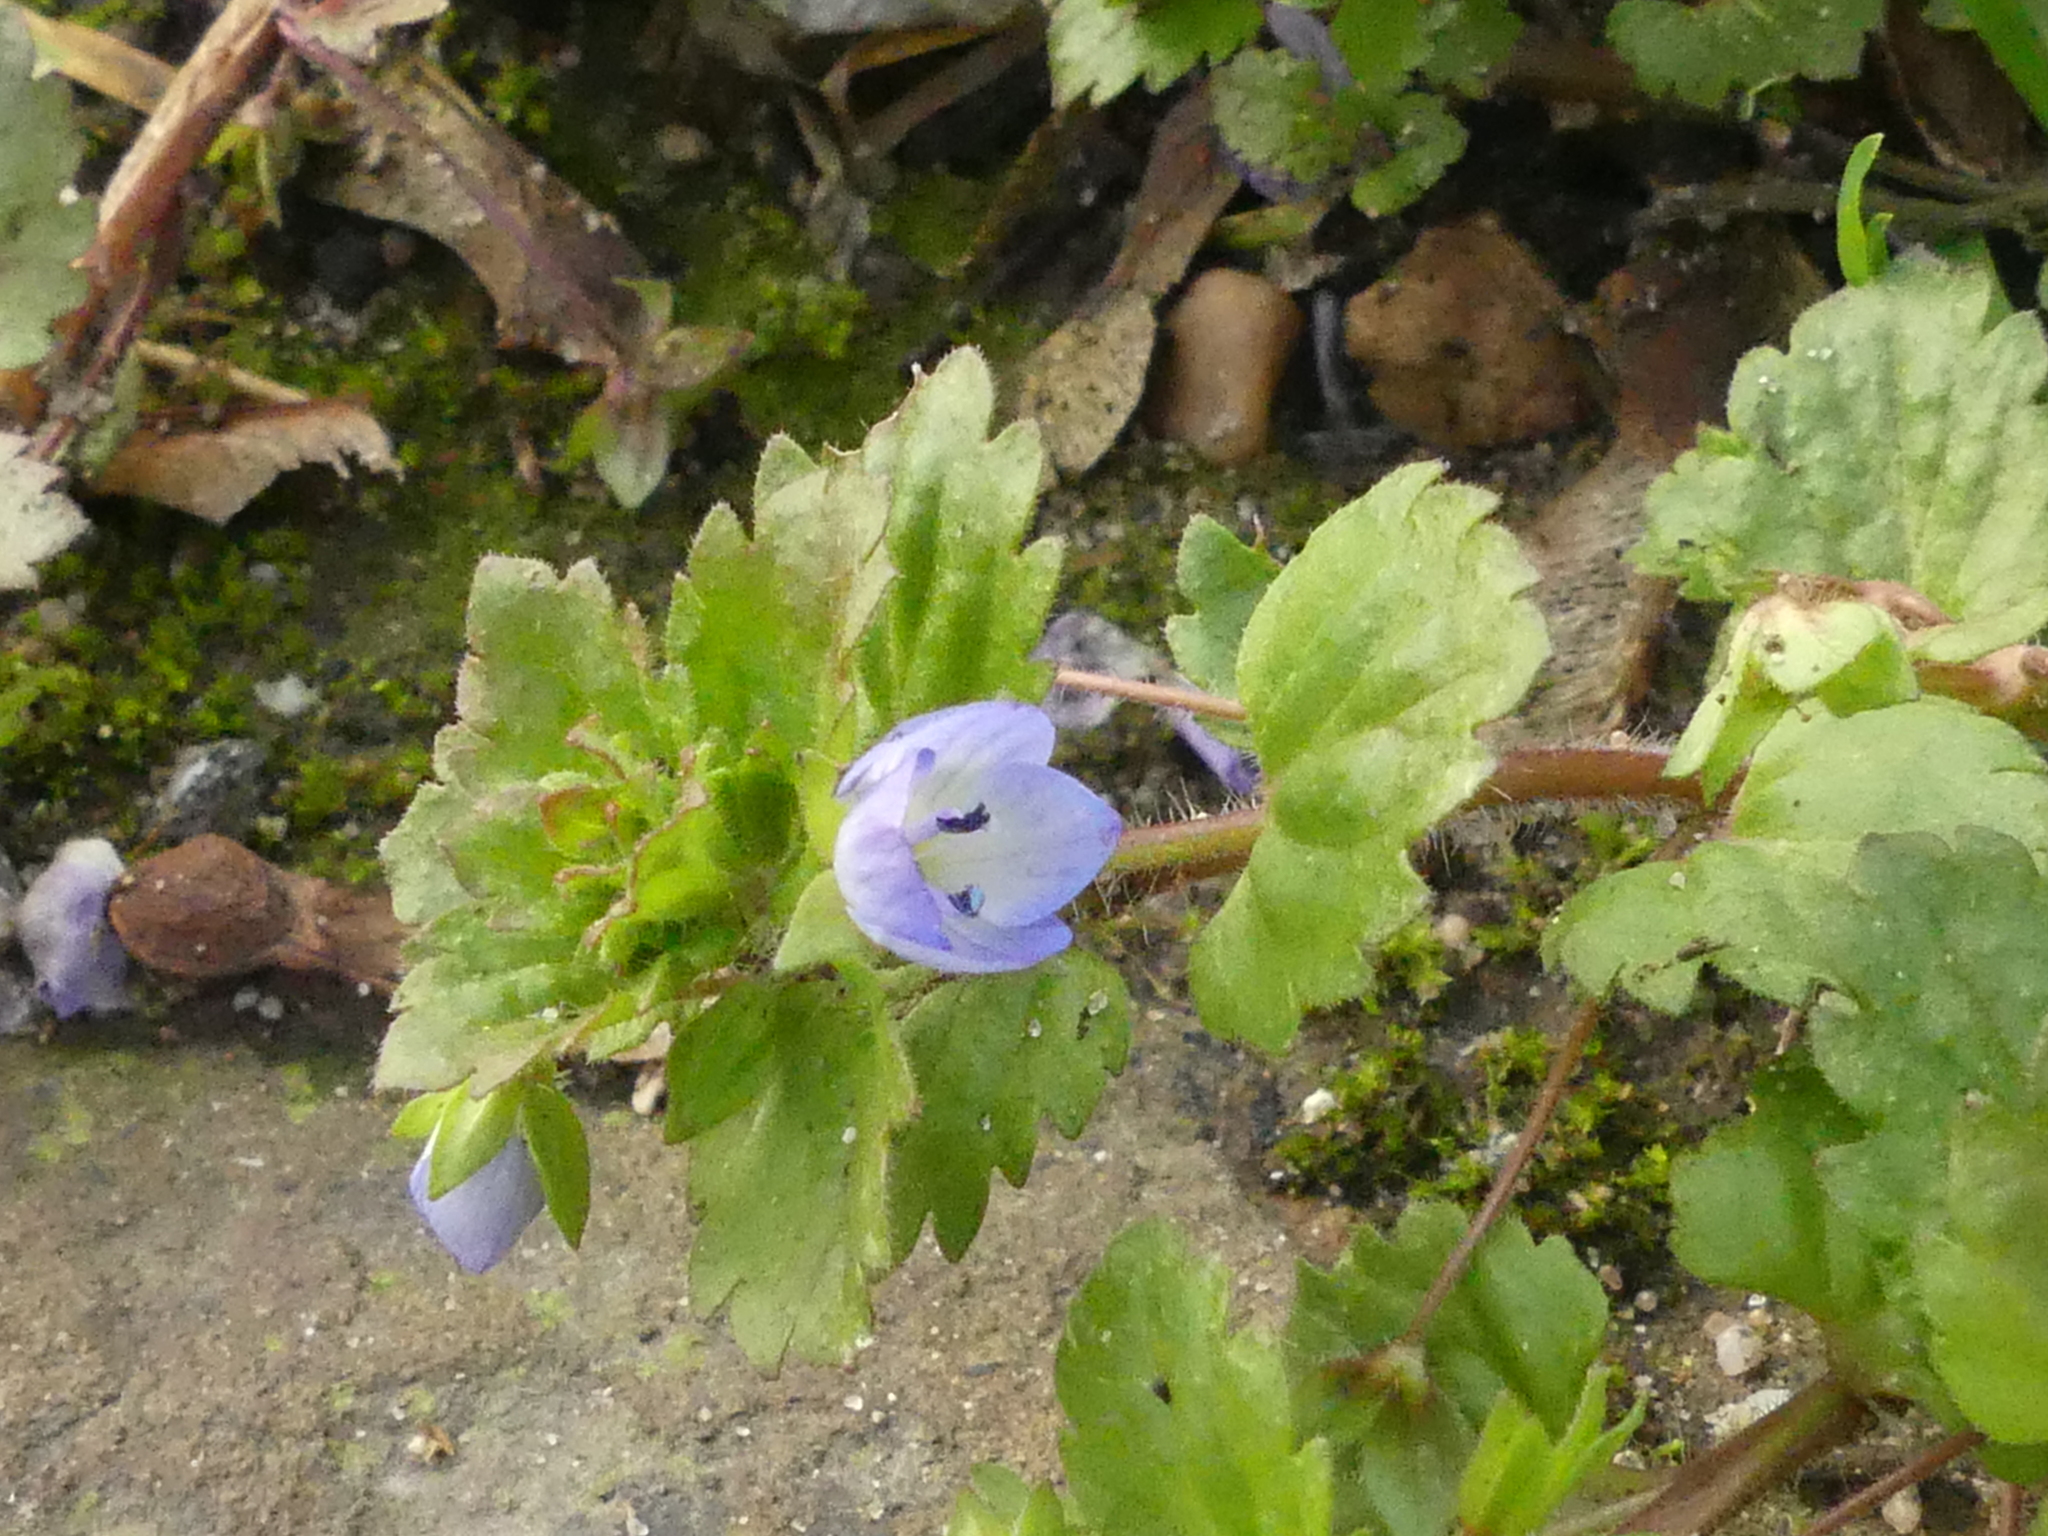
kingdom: Plantae
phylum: Tracheophyta
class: Magnoliopsida
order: Lamiales
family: Plantaginaceae
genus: Veronica
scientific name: Veronica persica
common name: Common field-speedwell
